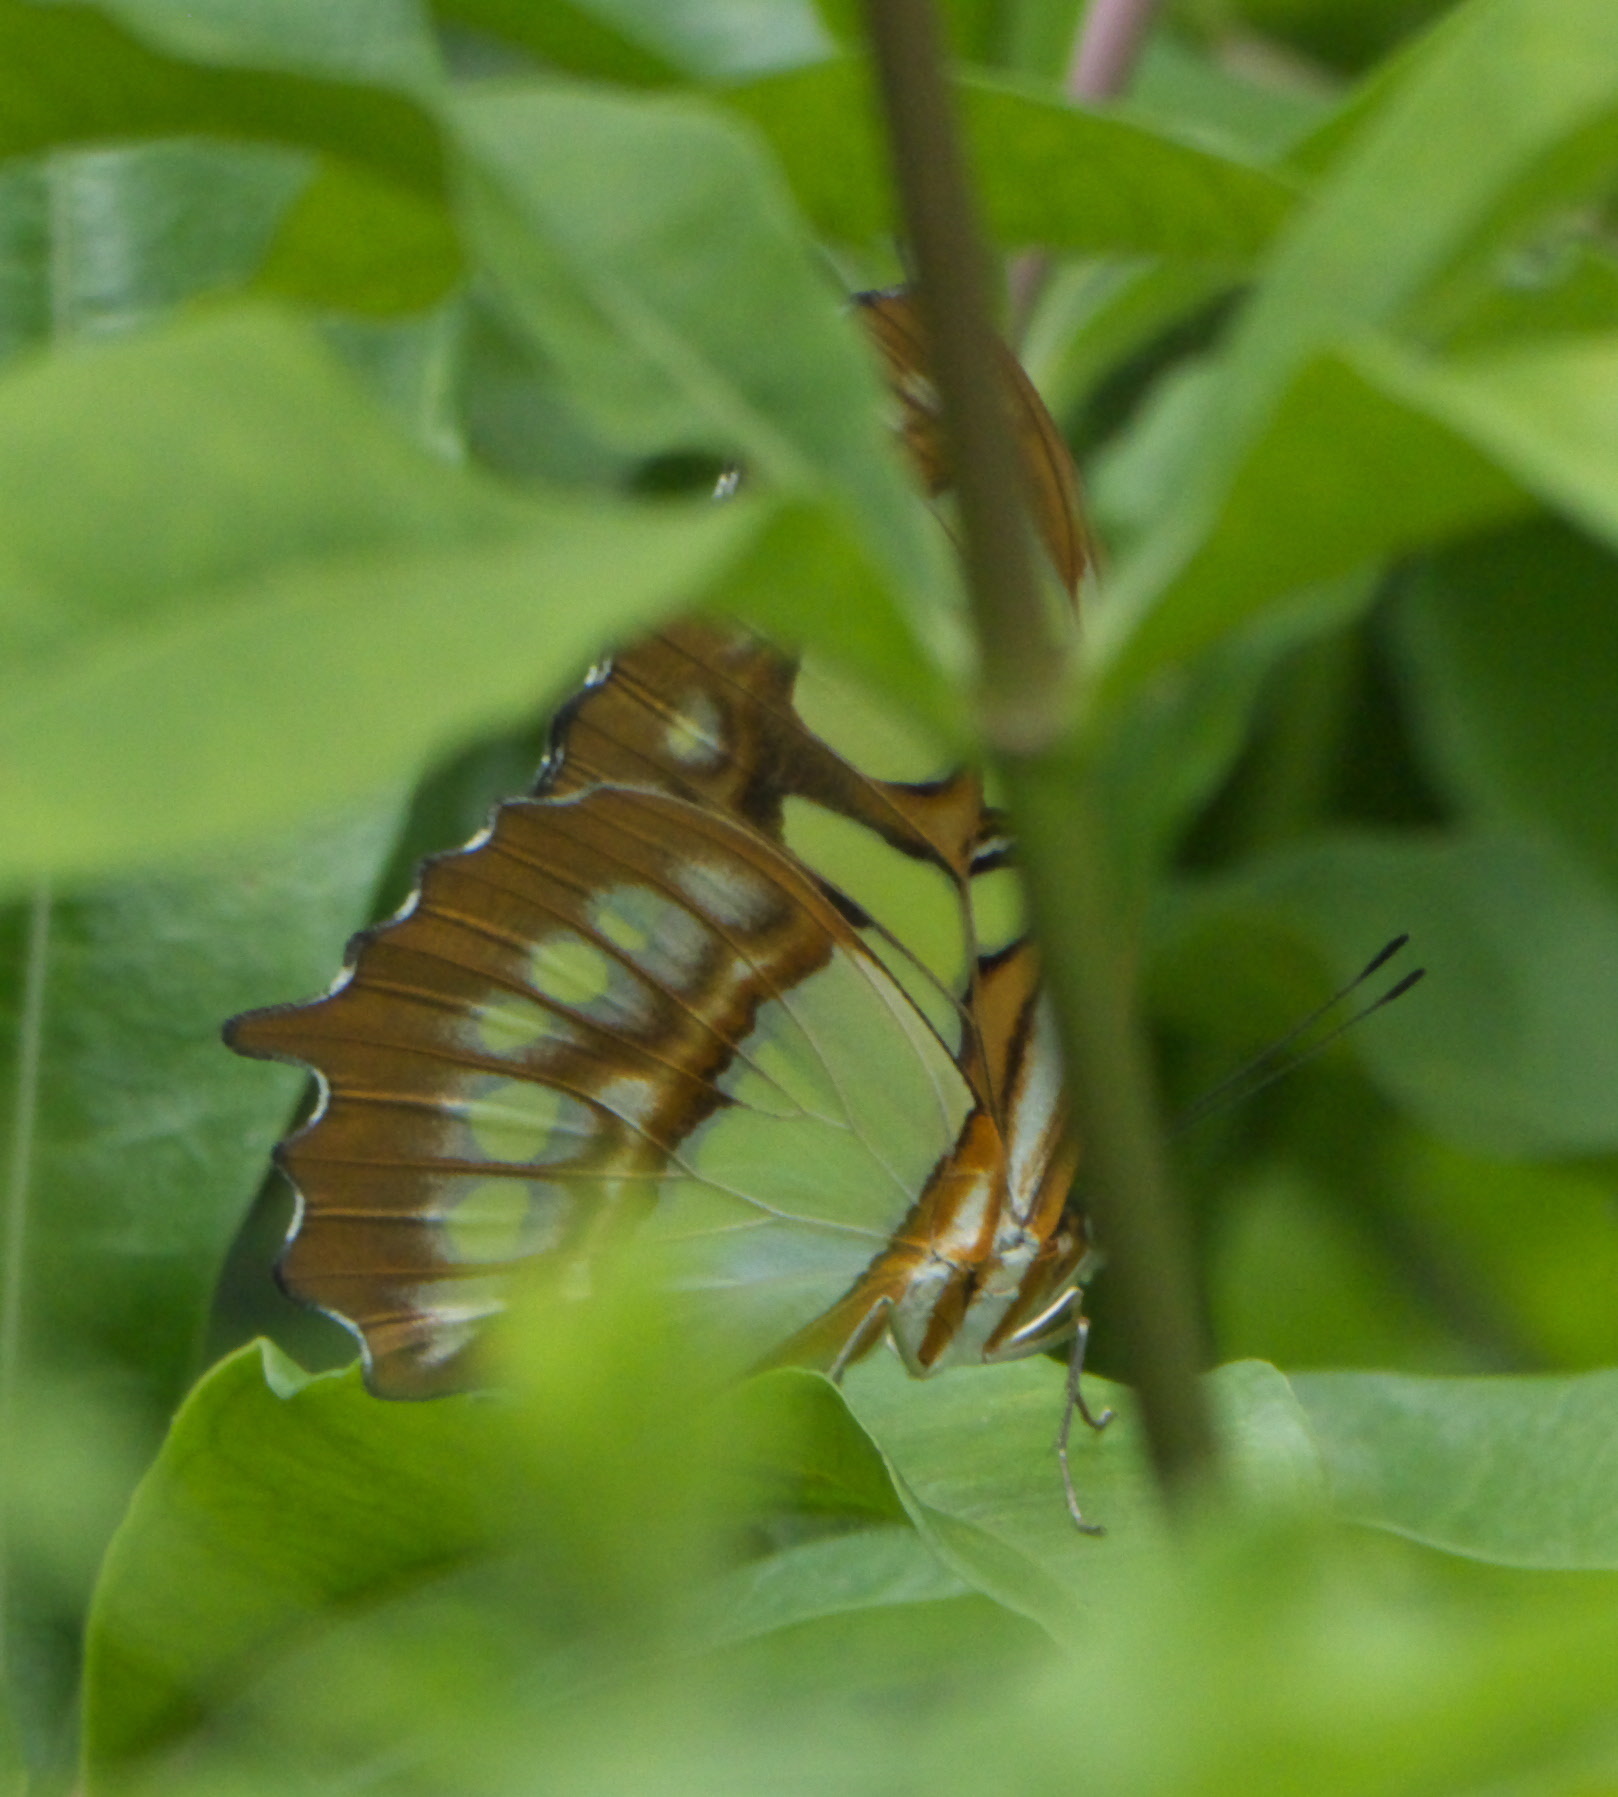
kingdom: Animalia
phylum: Arthropoda
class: Insecta
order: Lepidoptera
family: Nymphalidae
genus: Siproeta
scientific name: Siproeta stelenes
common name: Malachite
